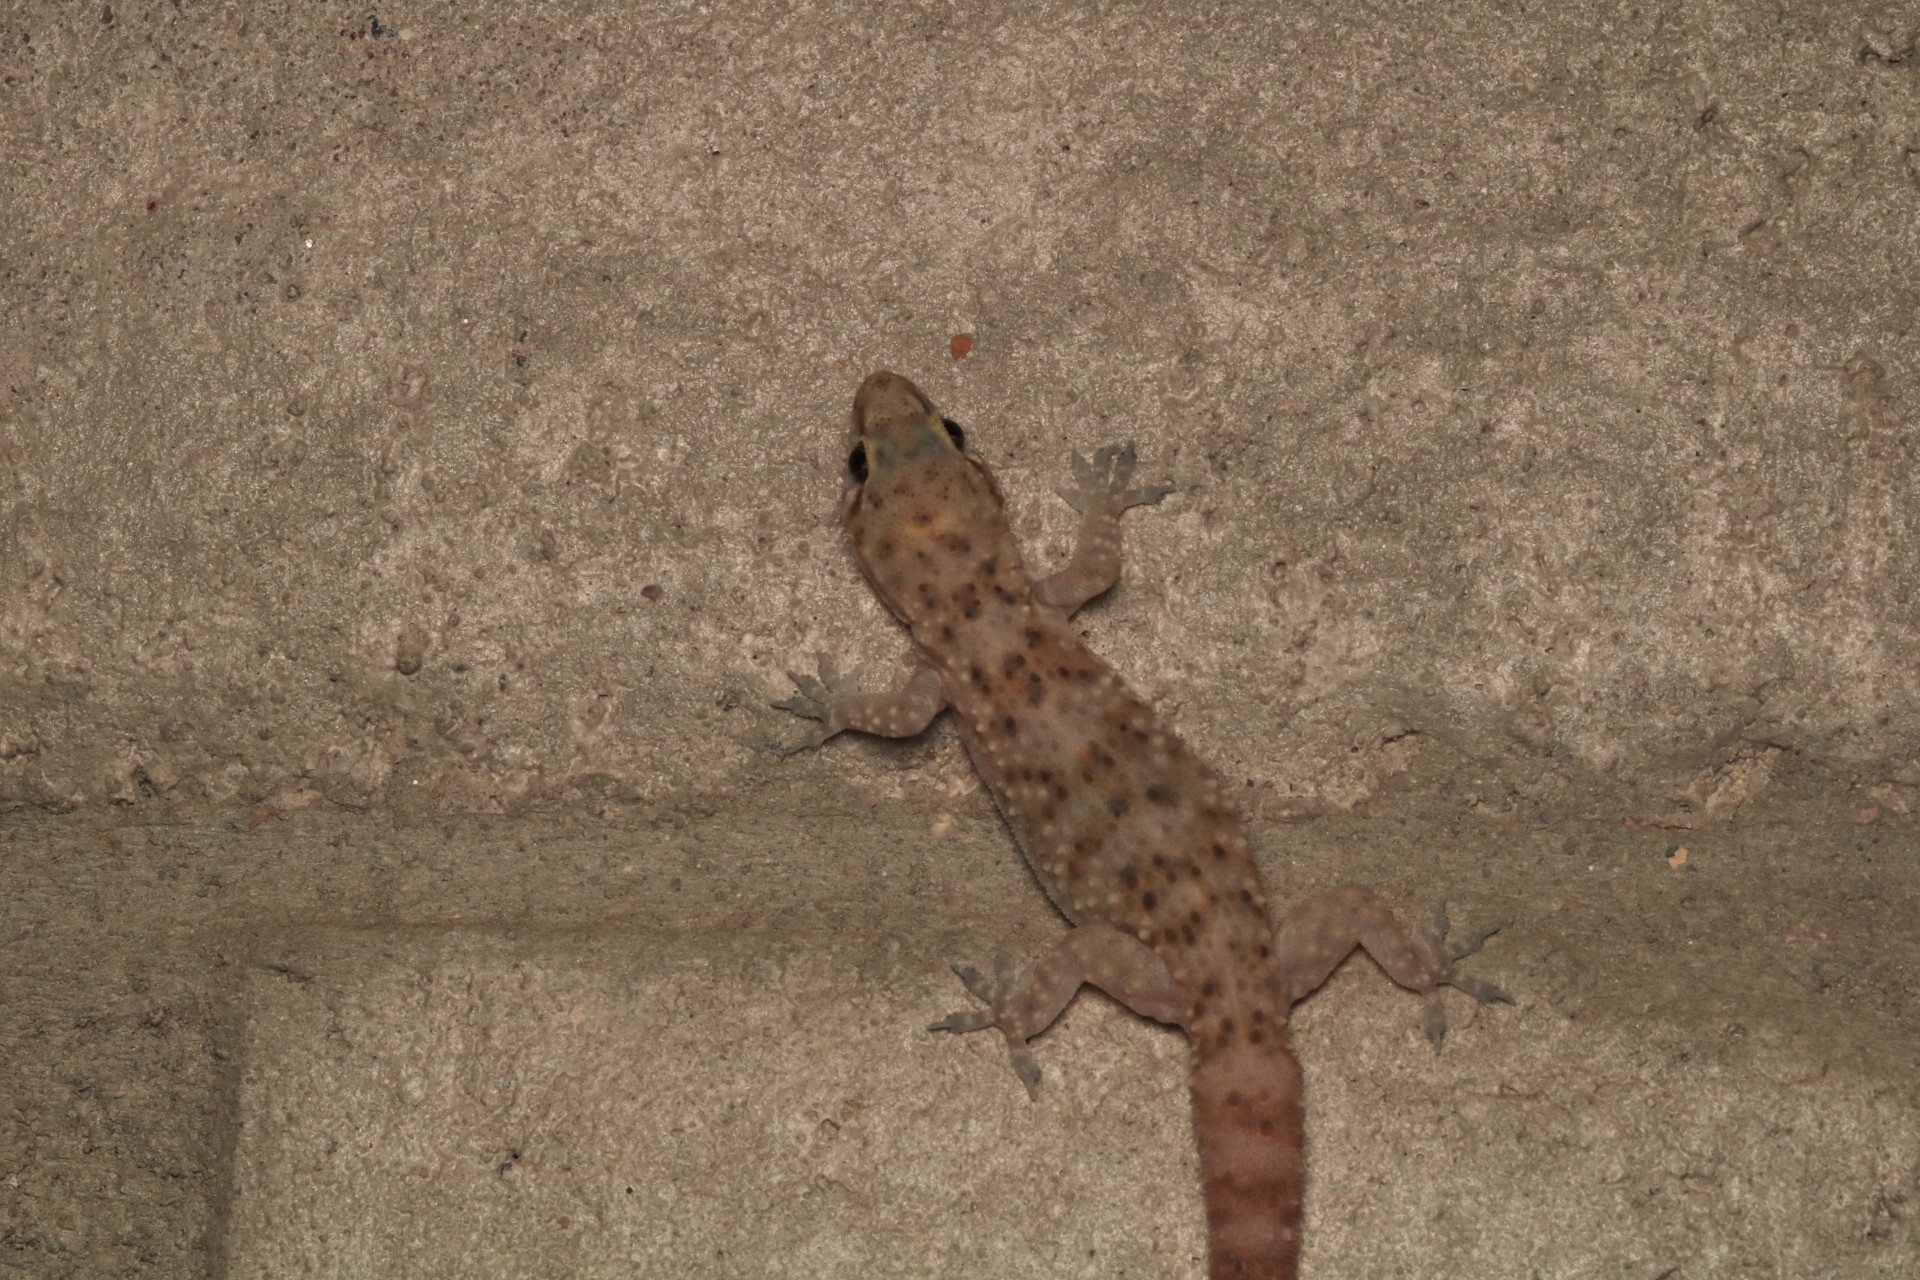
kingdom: Animalia
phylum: Chordata
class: Squamata
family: Gekkonidae
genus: Hemidactylus
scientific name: Hemidactylus turcicus
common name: Turkish gecko
